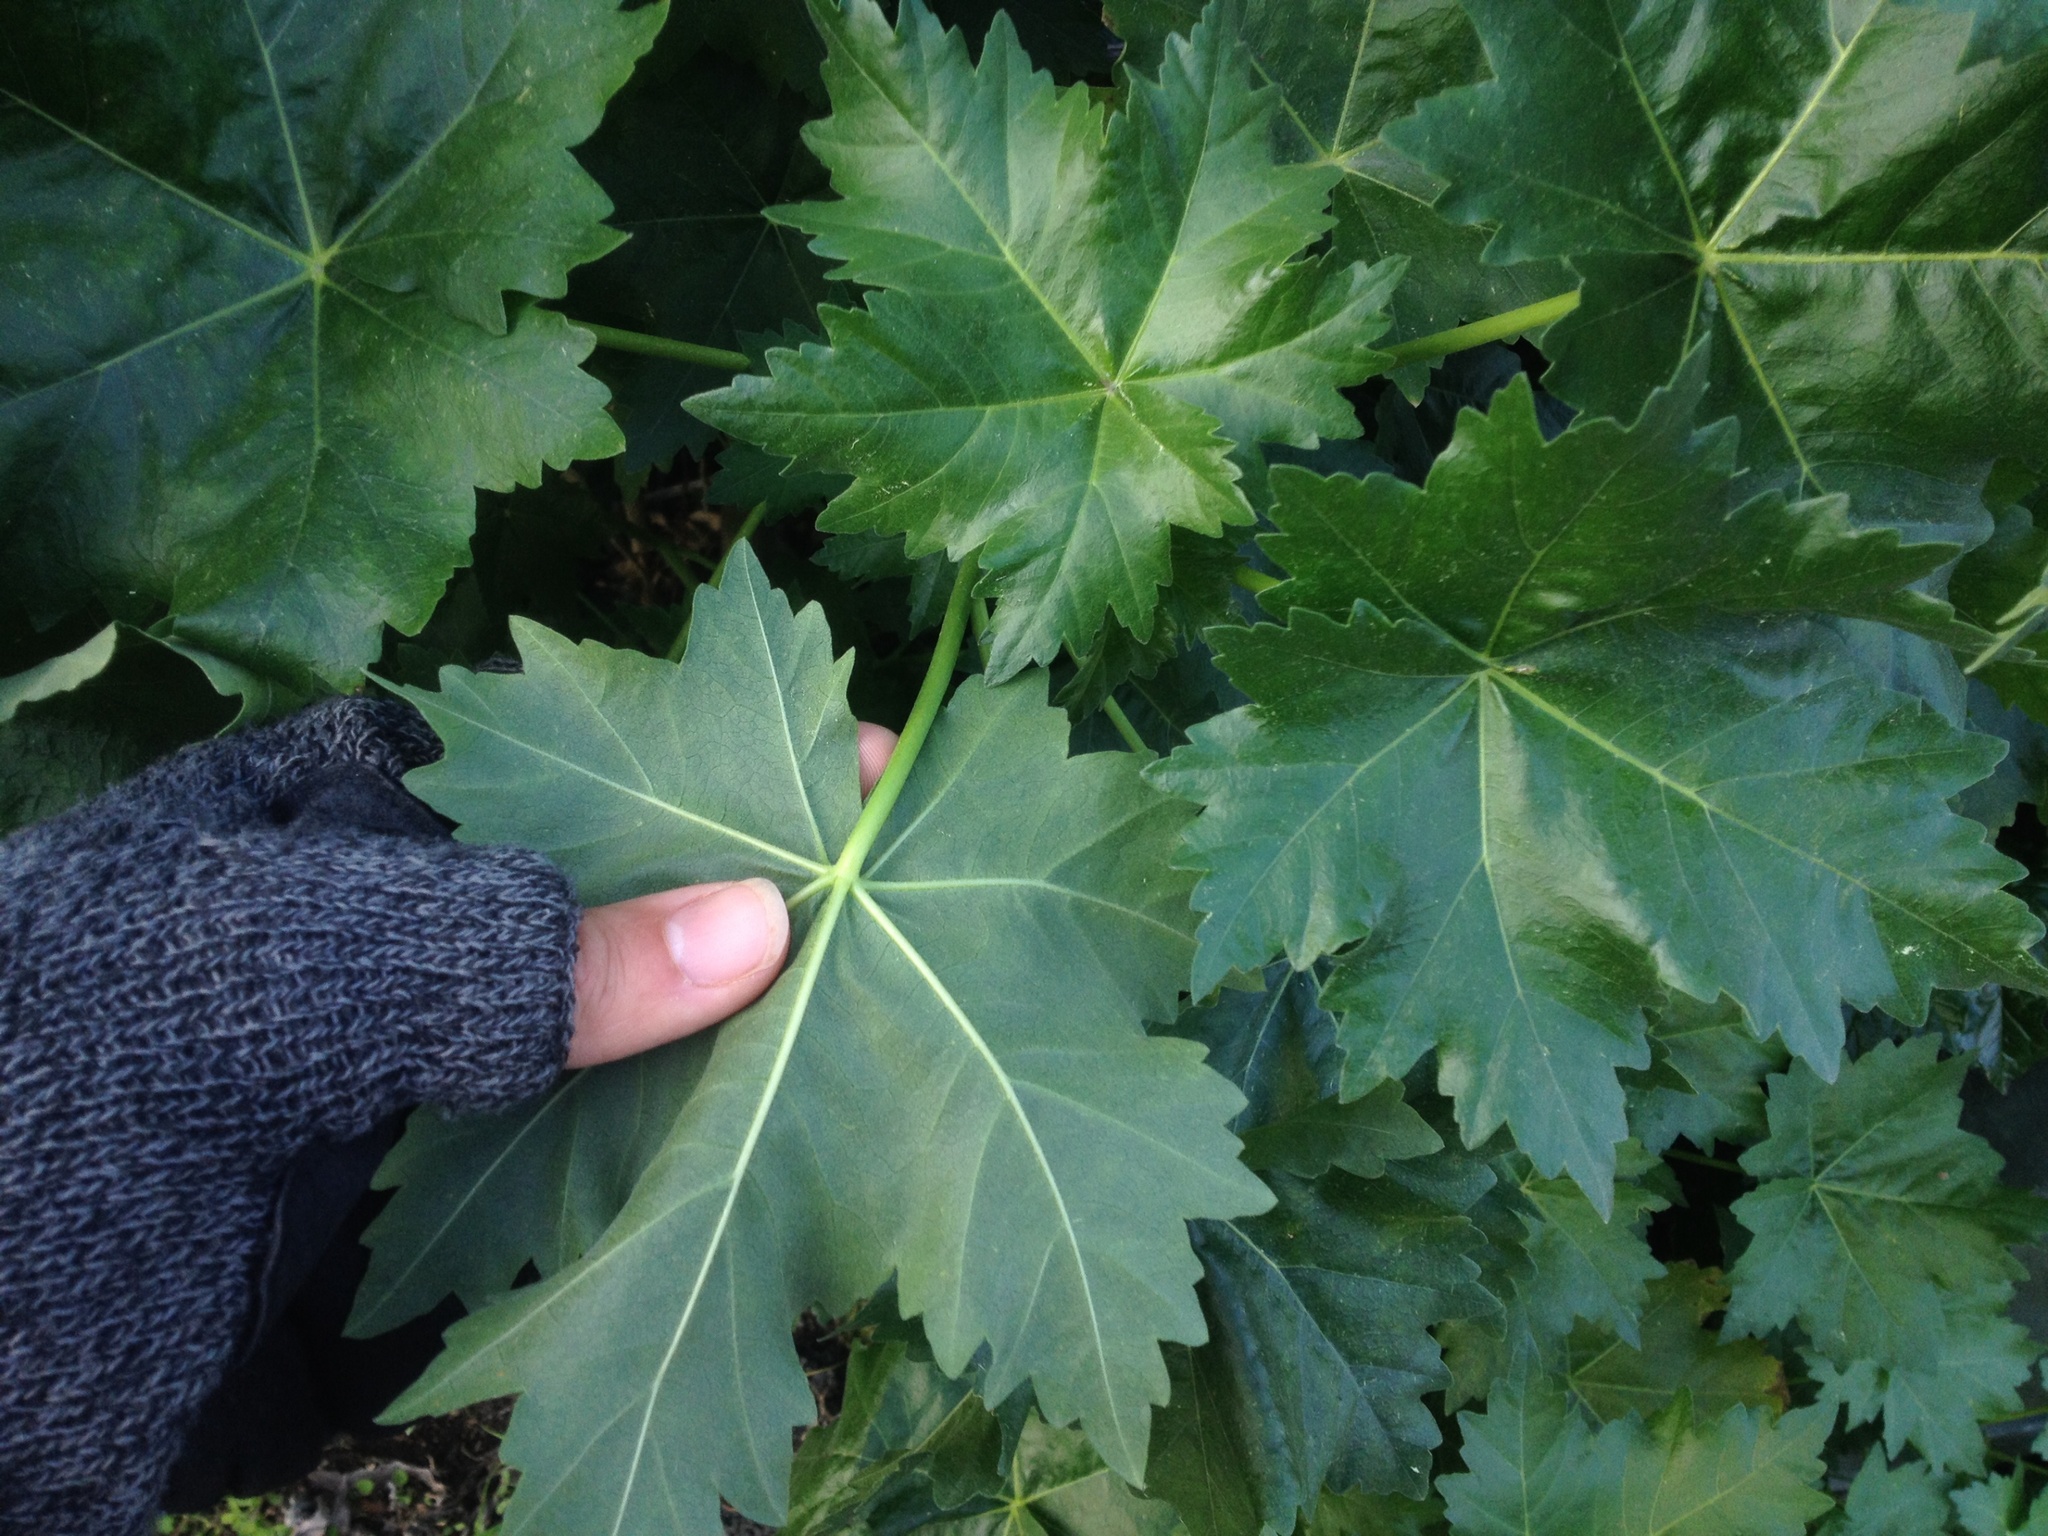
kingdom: Plantae
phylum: Tracheophyta
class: Magnoliopsida
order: Malvales
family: Malvaceae
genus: Malva
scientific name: Malva assurgentiflora
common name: Island mallow
